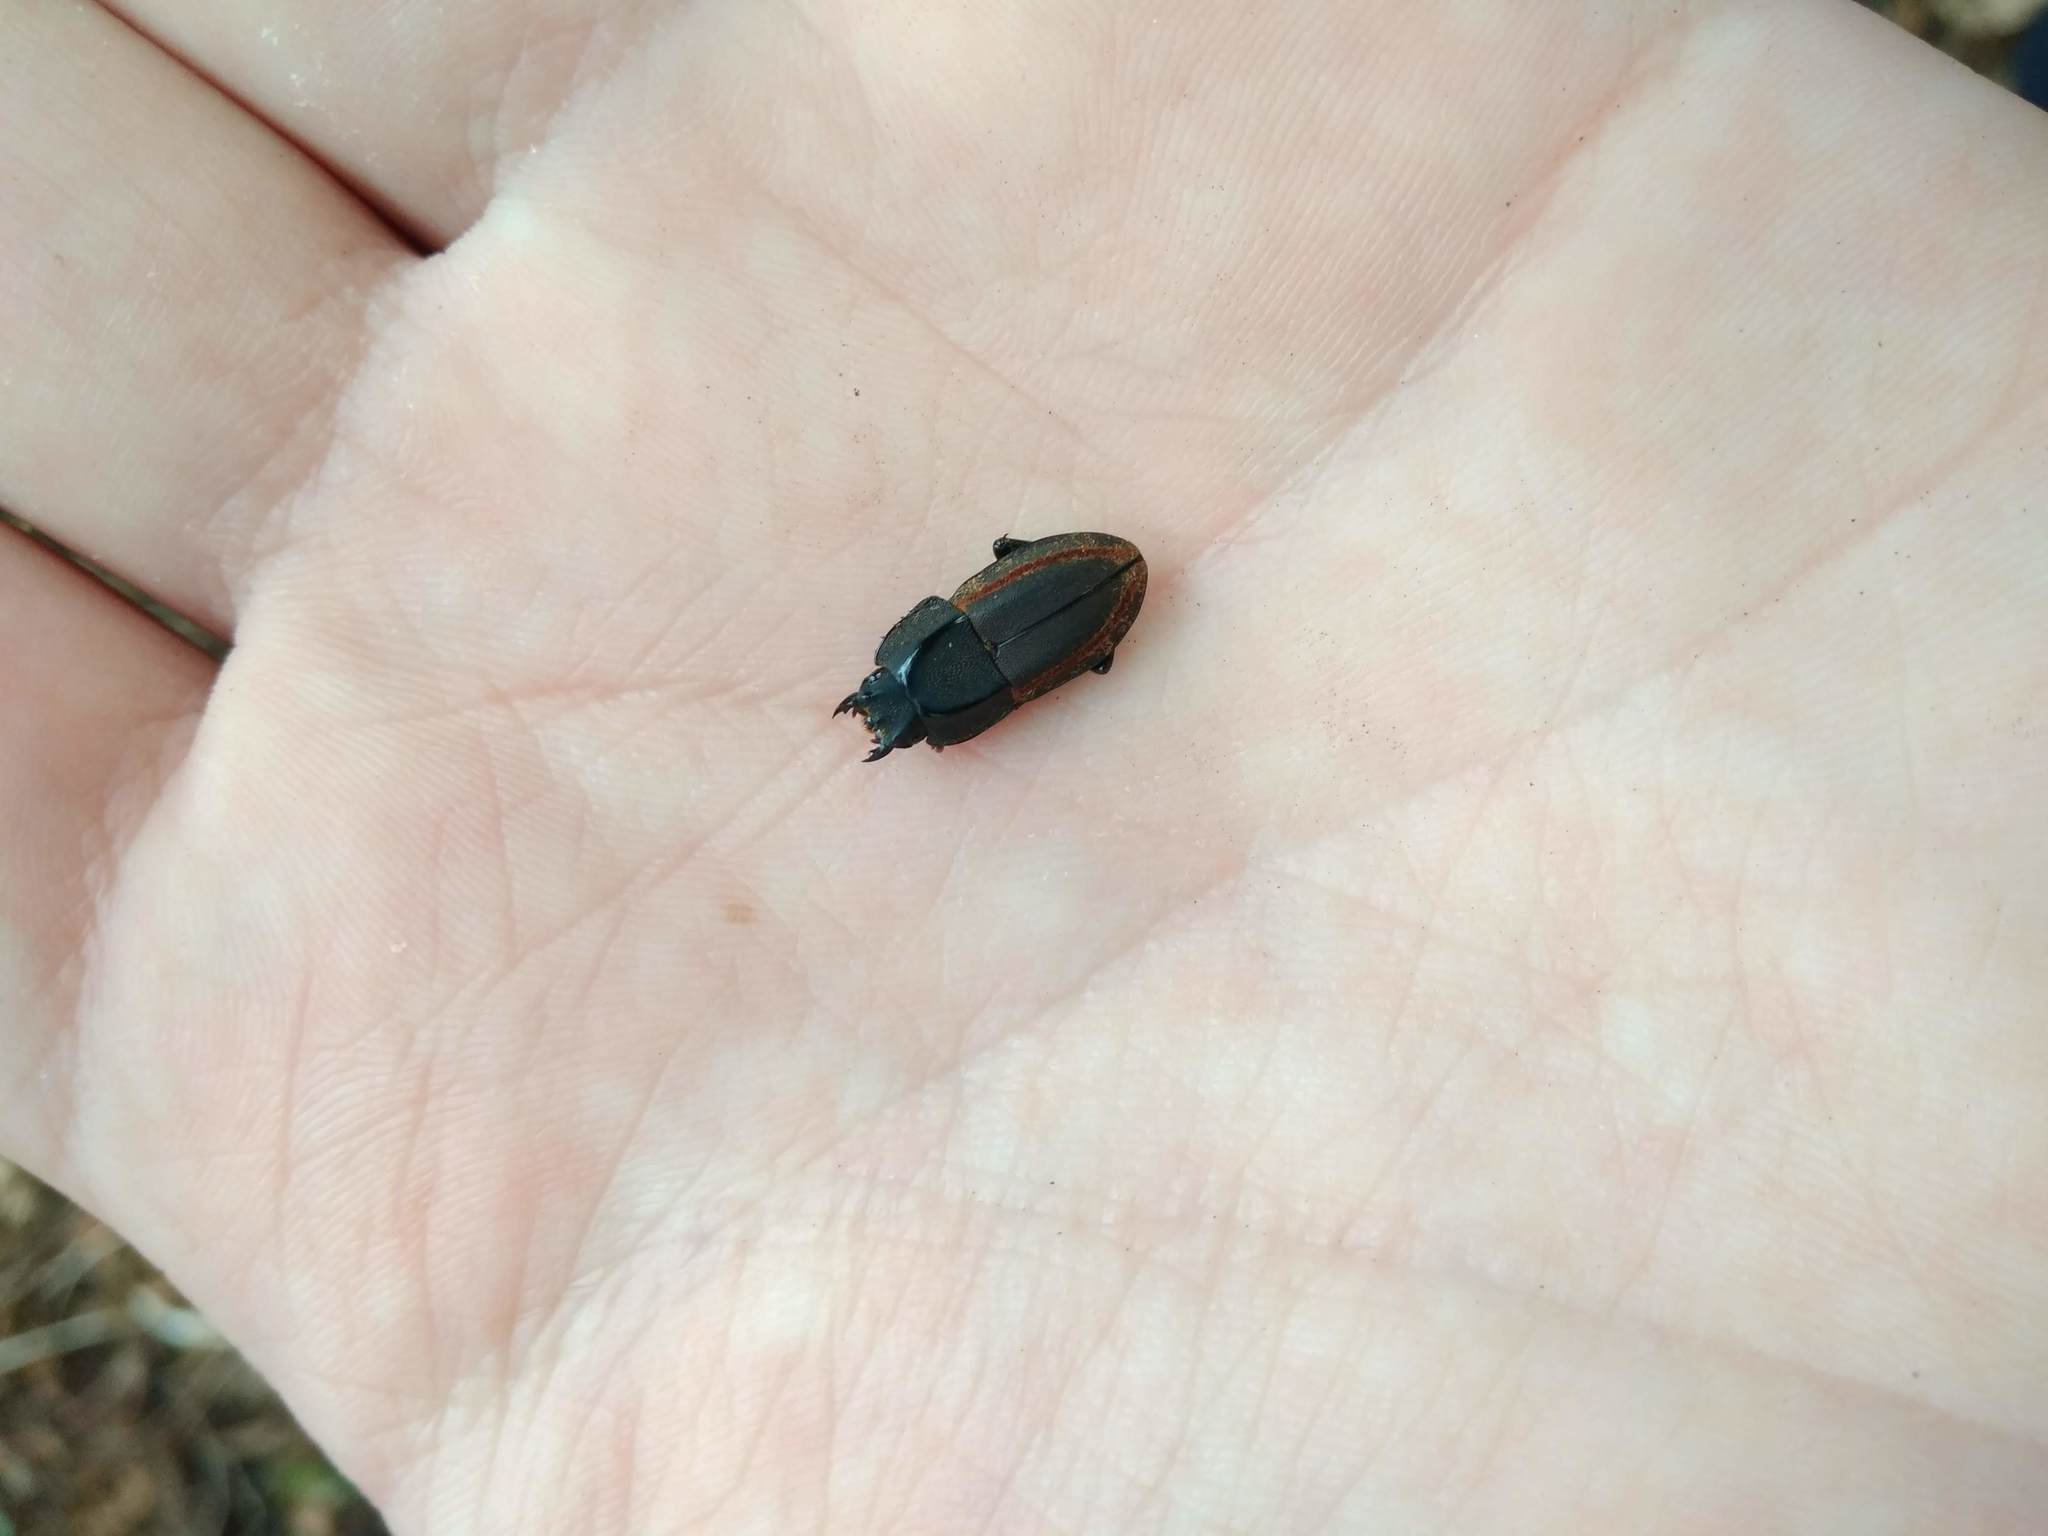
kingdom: Animalia
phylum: Arthropoda
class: Insecta
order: Coleoptera
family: Lucanidae
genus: Erichius
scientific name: Erichius vittatus
